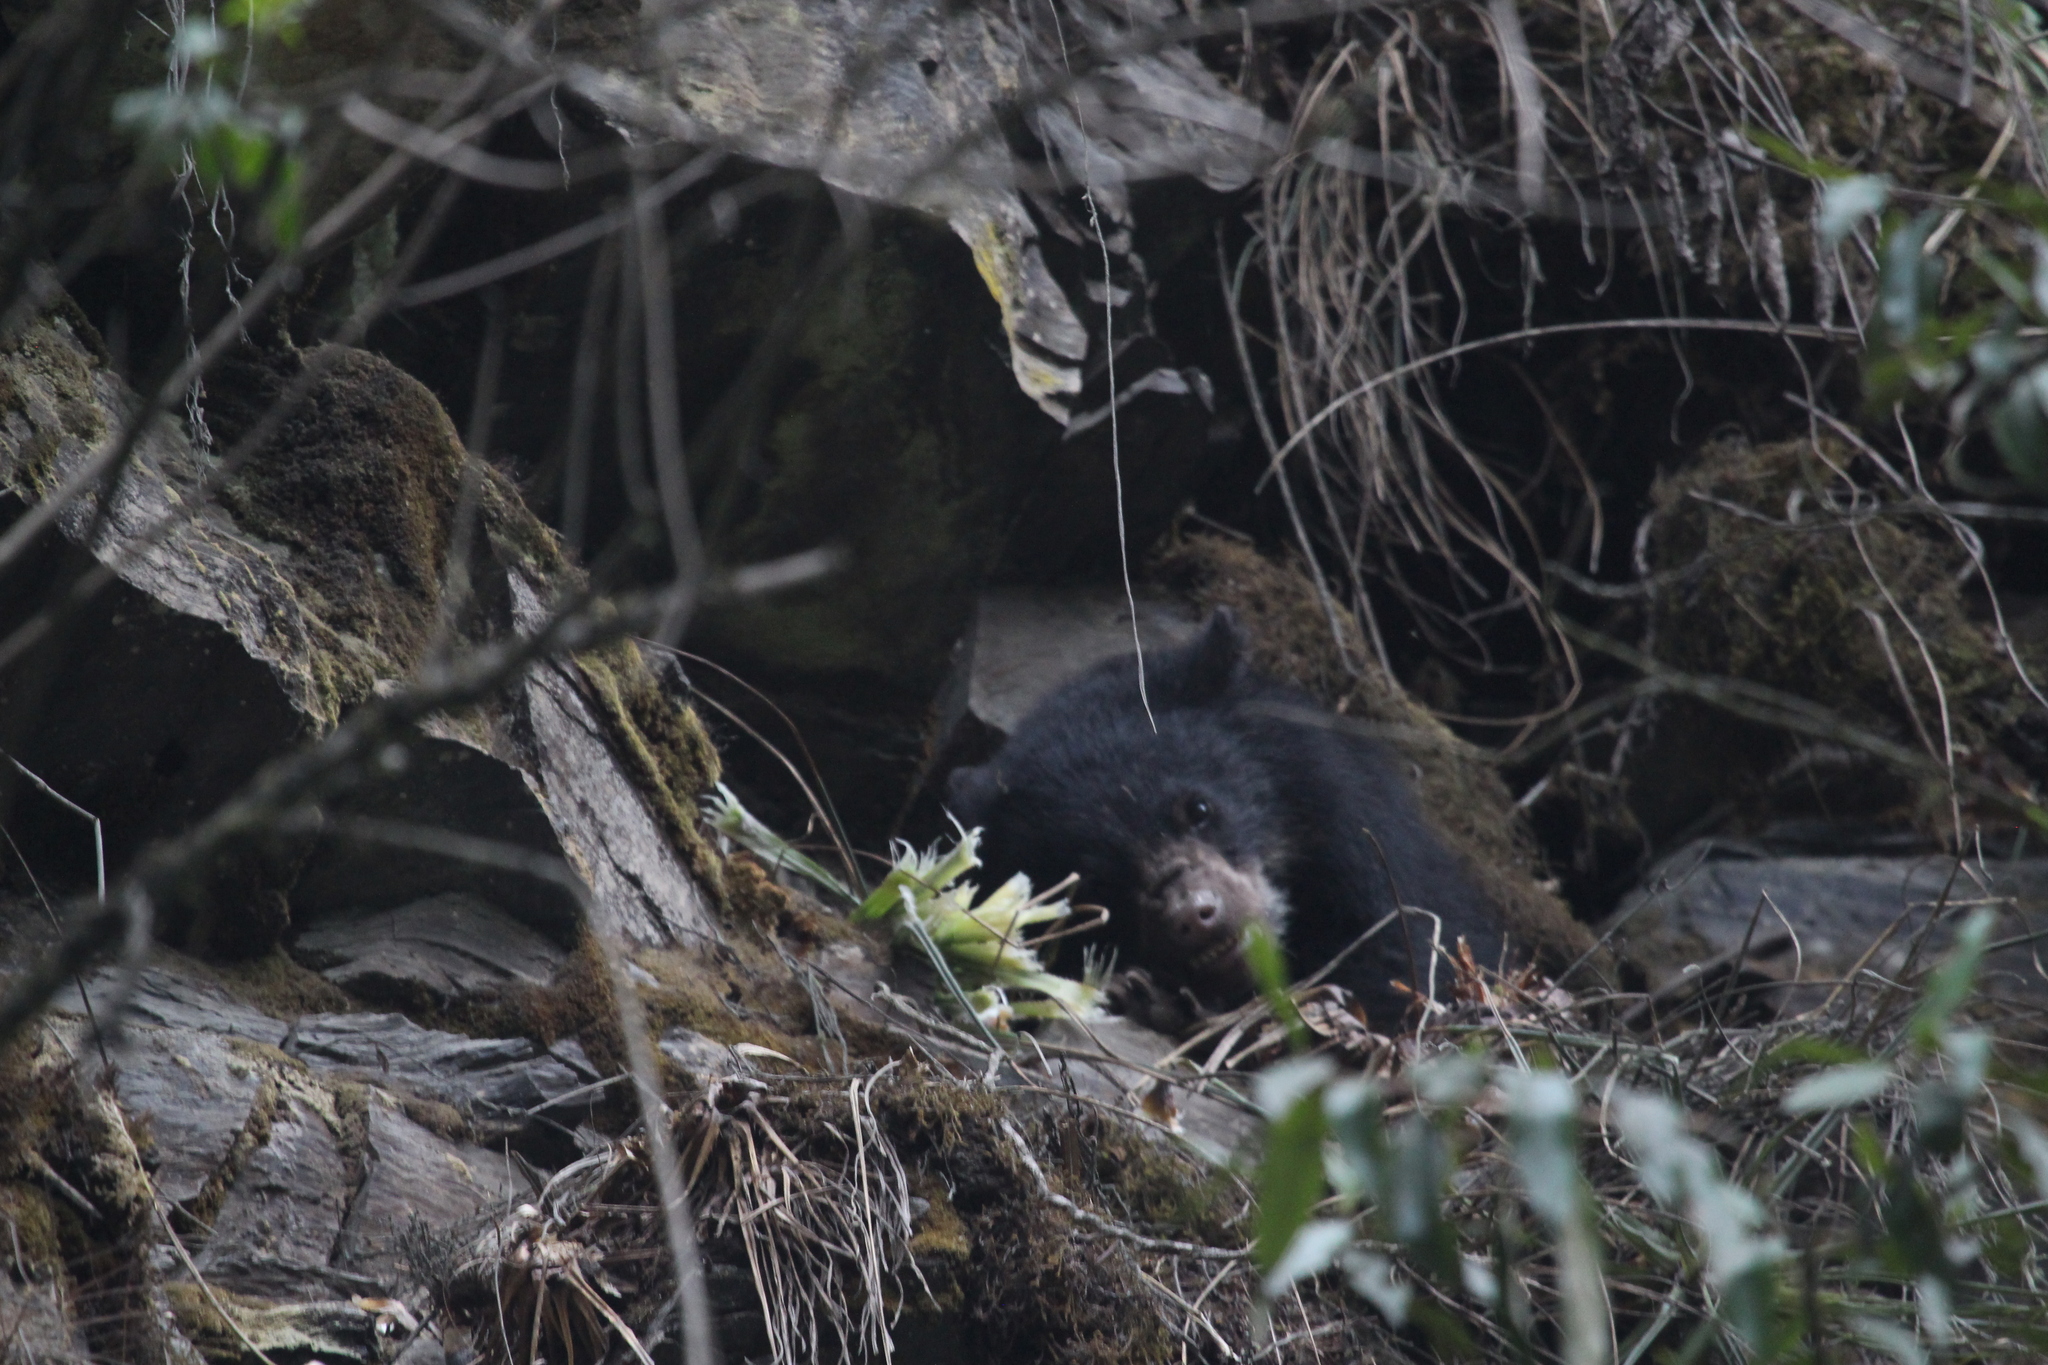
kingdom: Animalia
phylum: Chordata
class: Mammalia
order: Carnivora
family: Ursidae
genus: Tremarctos
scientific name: Tremarctos ornatus
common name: Spectacled bear
